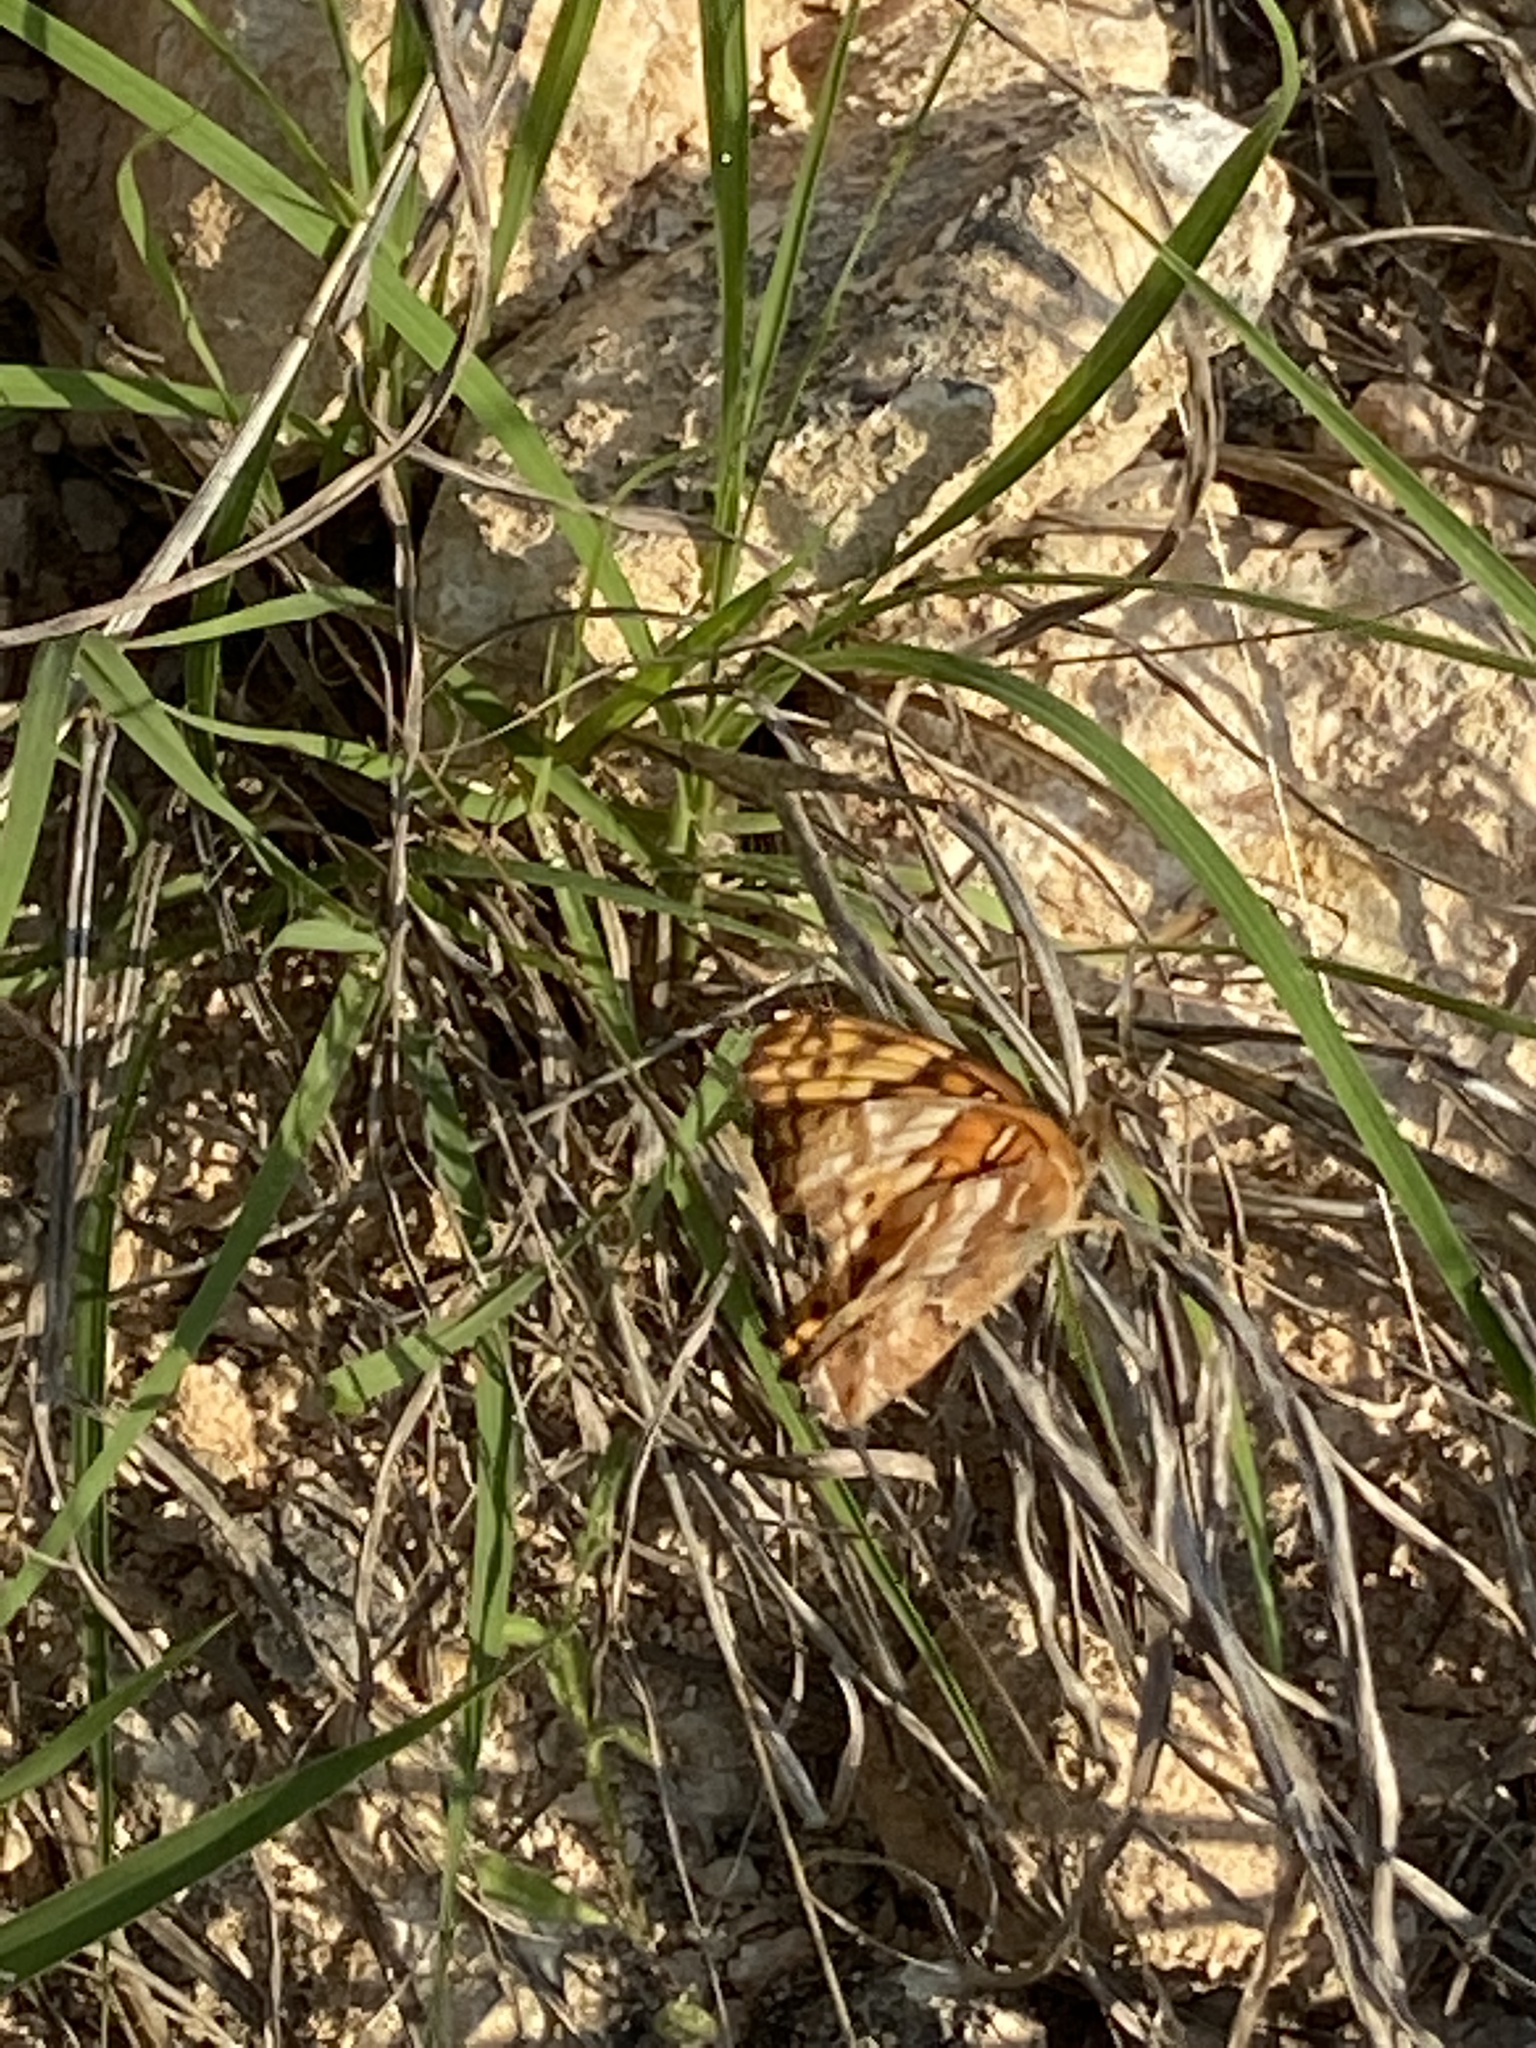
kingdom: Animalia
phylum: Arthropoda
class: Insecta
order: Lepidoptera
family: Nymphalidae
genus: Euptoieta
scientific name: Euptoieta claudia
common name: Variegated fritillary
